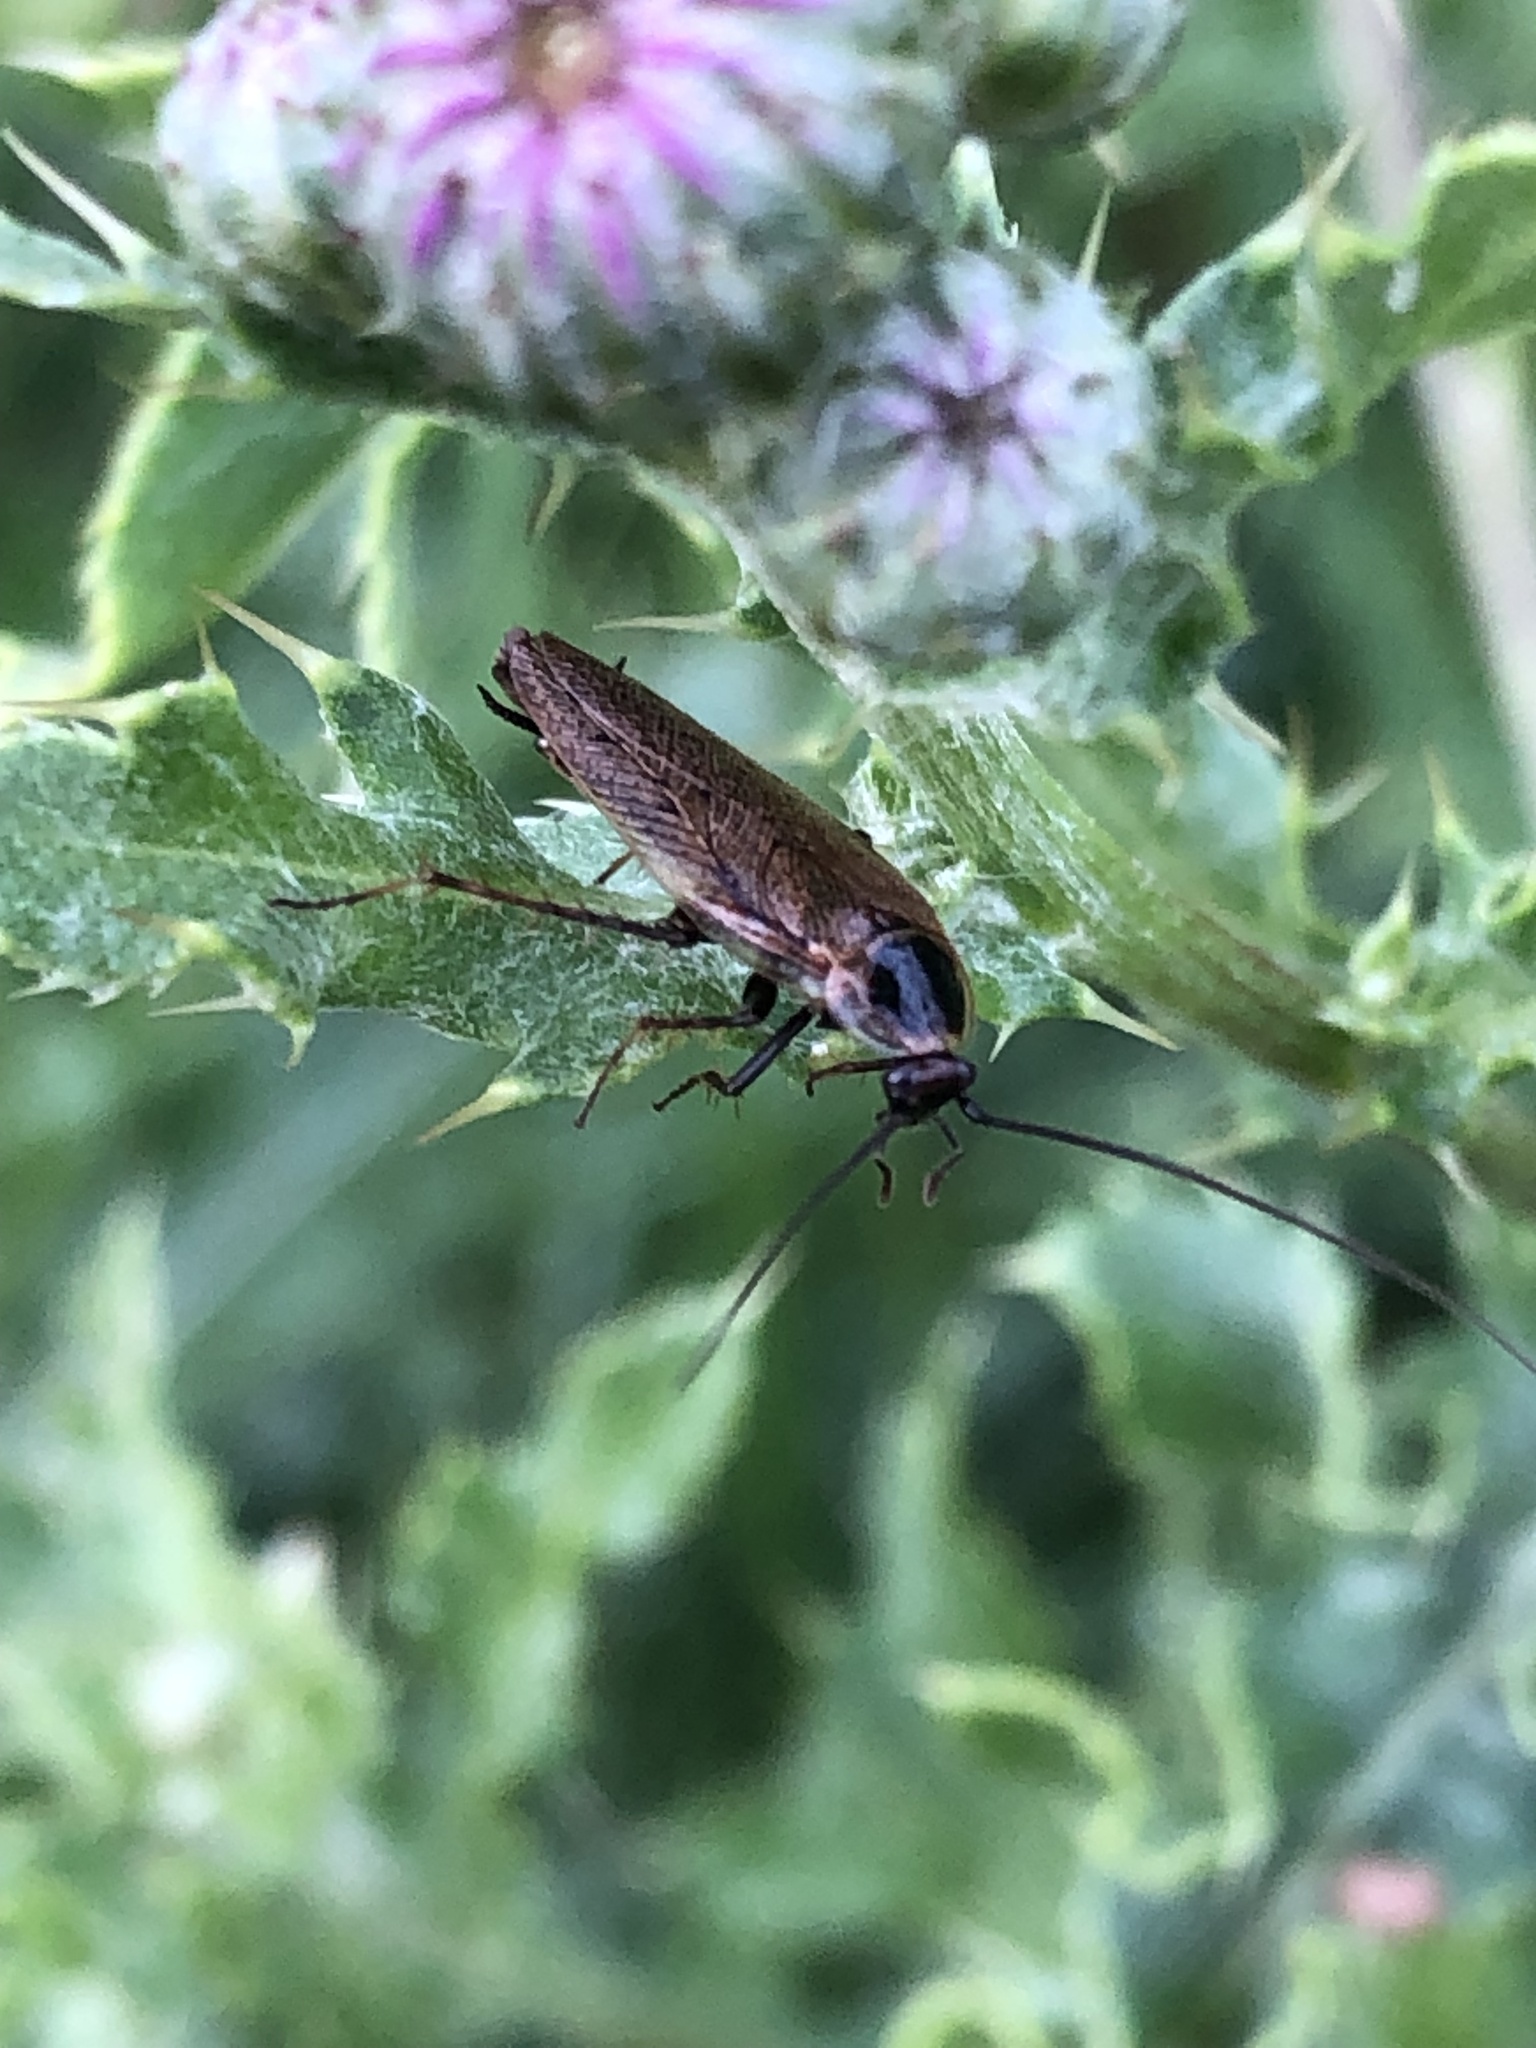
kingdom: Animalia
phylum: Arthropoda
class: Insecta
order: Blattodea
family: Ectobiidae
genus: Ectobius
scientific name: Ectobius lapponicus
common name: Dusky cockroach
